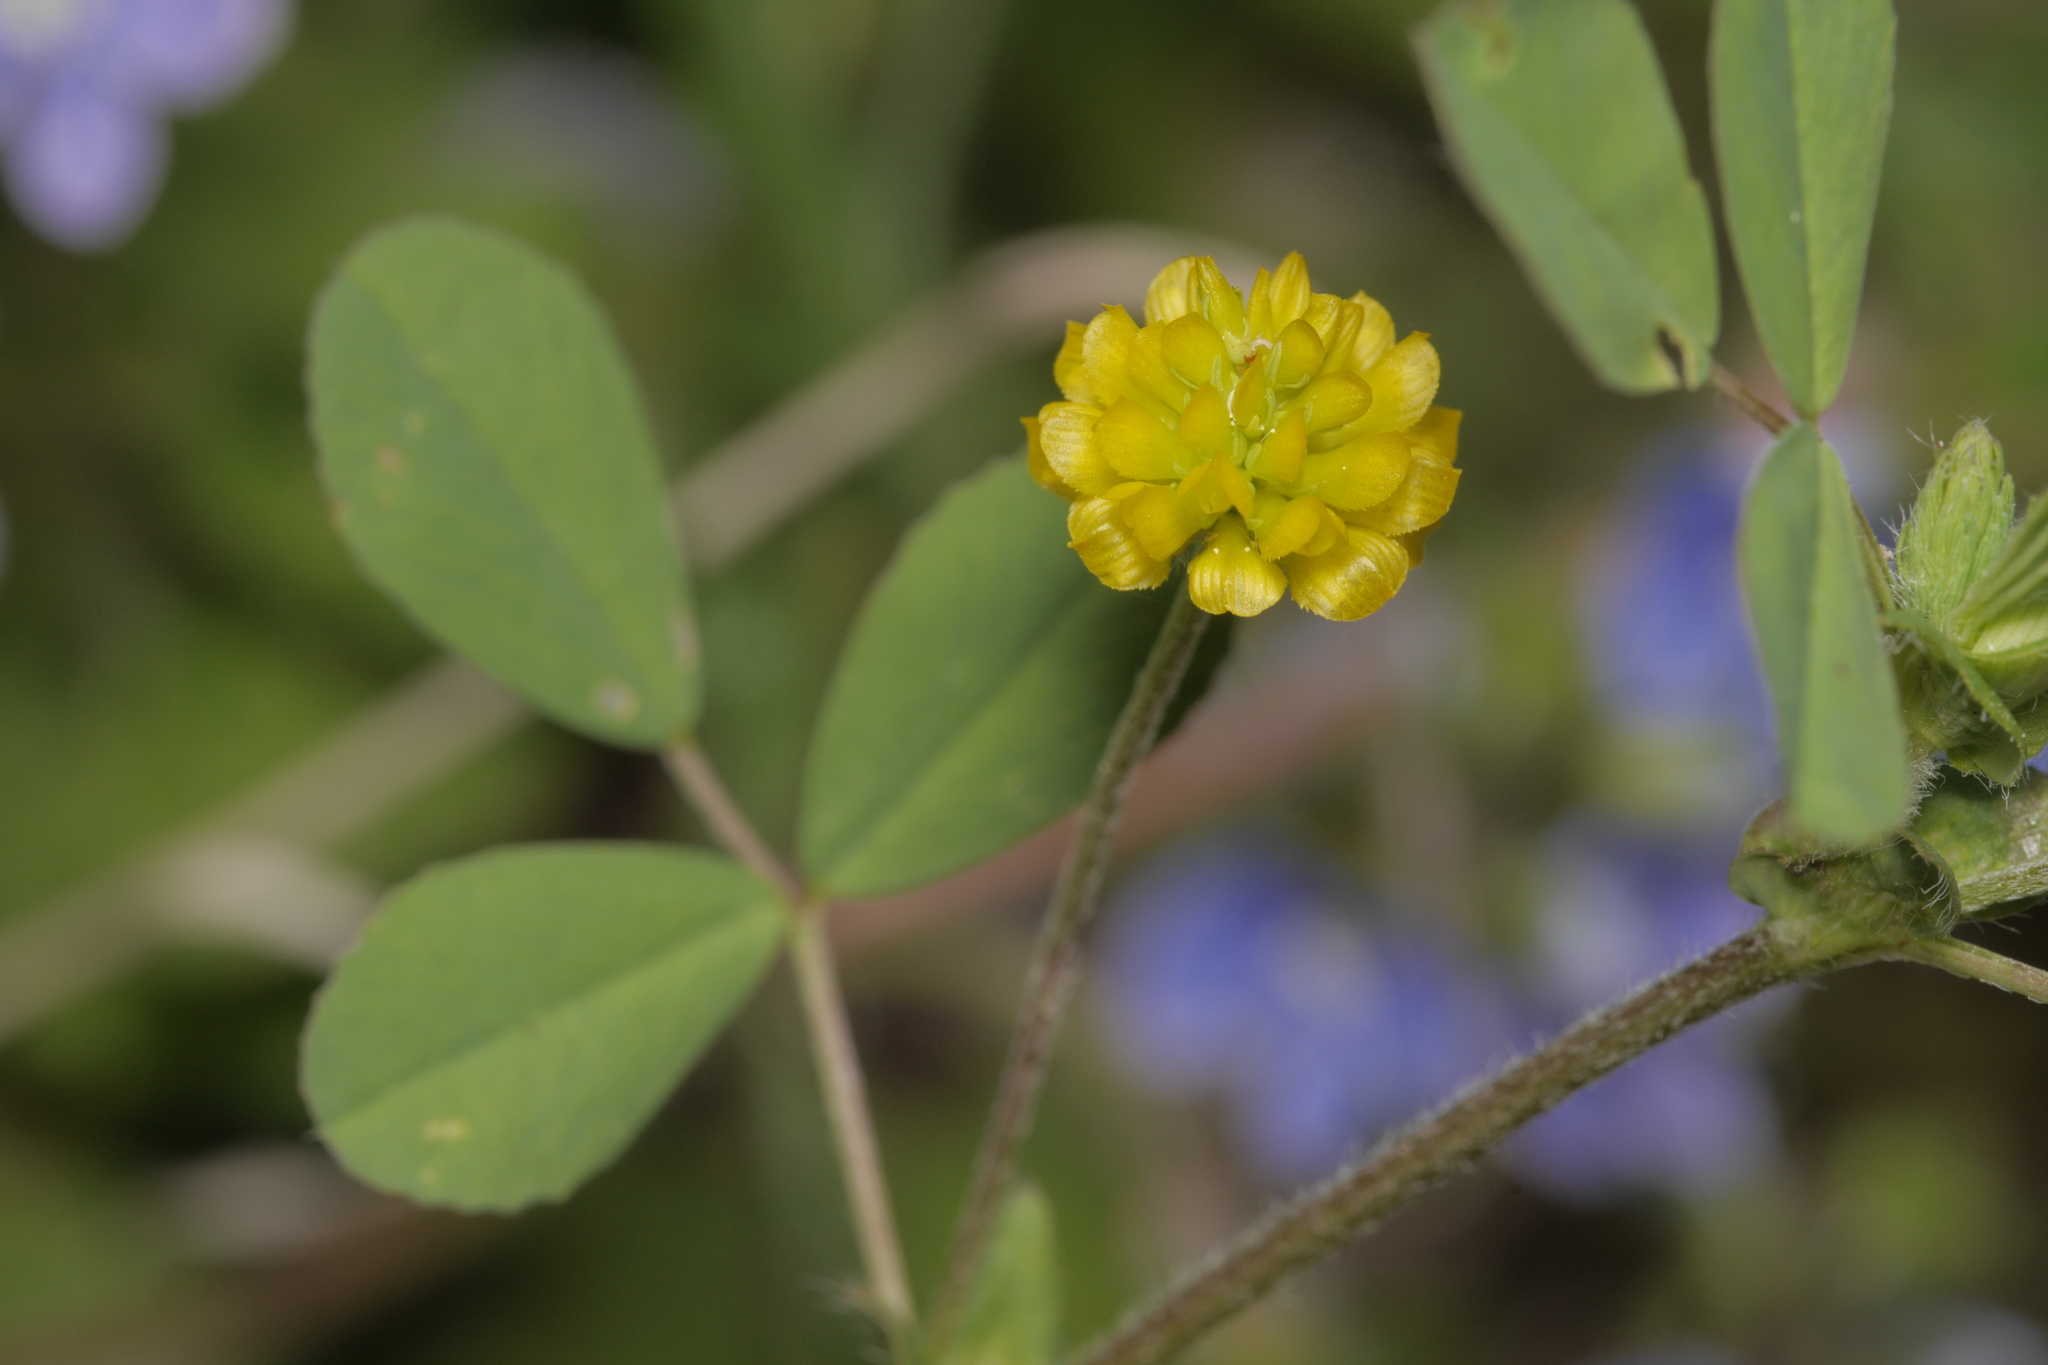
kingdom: Plantae
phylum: Tracheophyta
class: Magnoliopsida
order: Fabales
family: Fabaceae
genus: Trifolium
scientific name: Trifolium campestre
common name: Field clover
